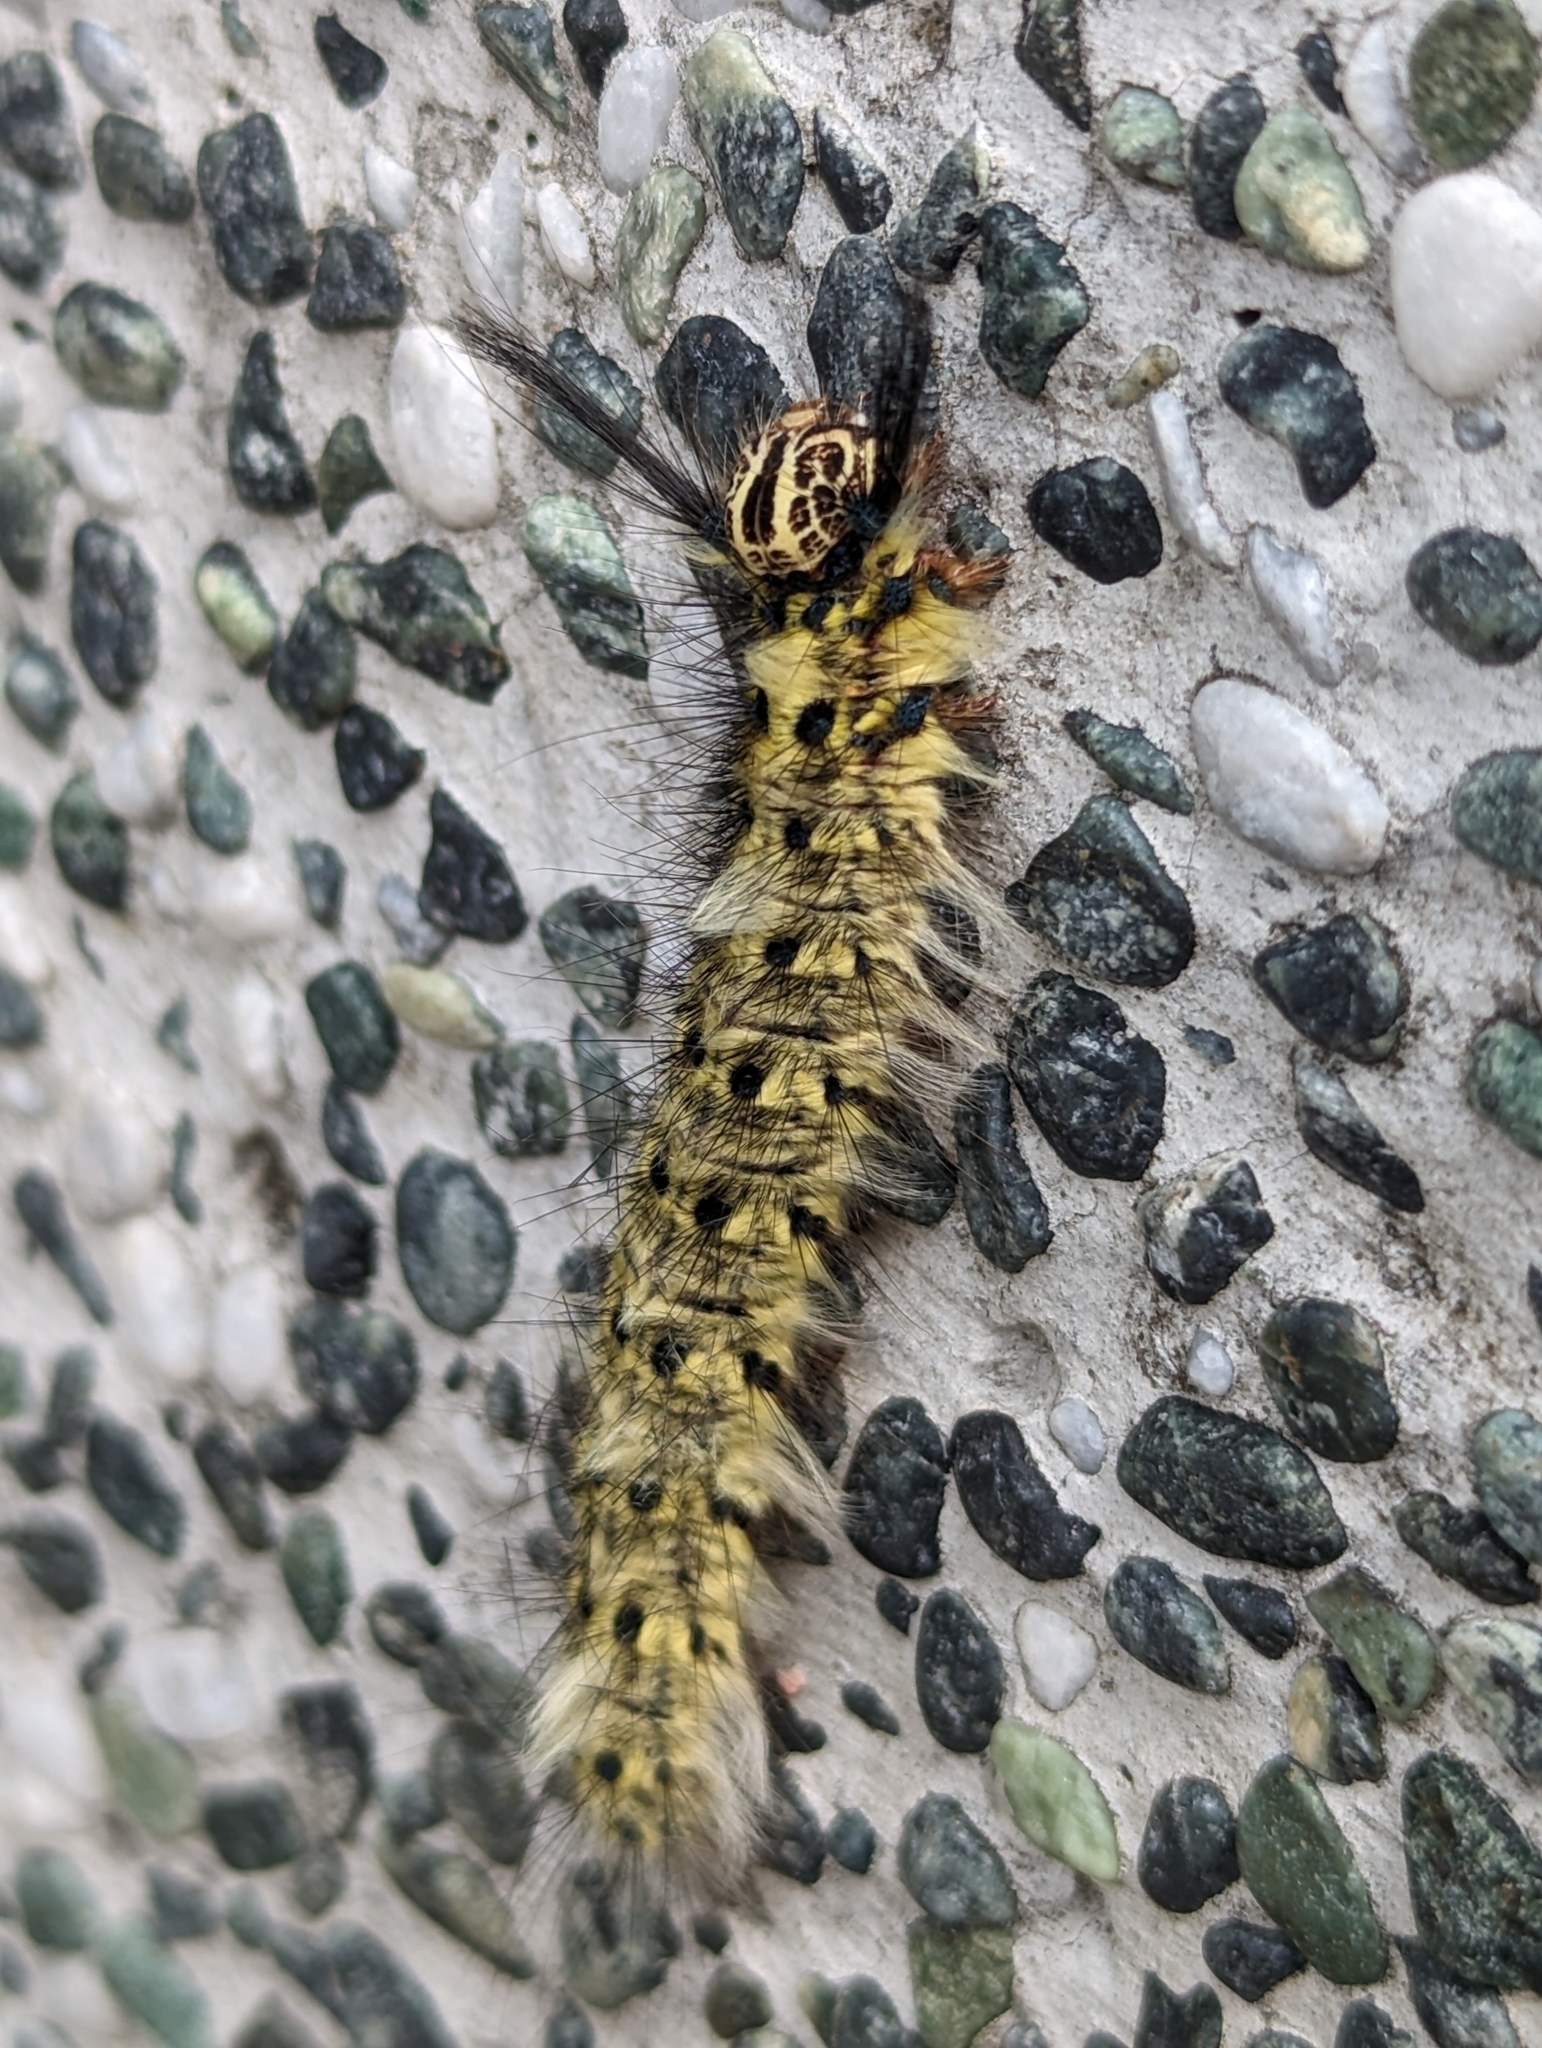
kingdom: Animalia
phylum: Arthropoda
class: Insecta
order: Lepidoptera
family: Lasiocampidae
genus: Trabala
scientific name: Trabala vishnou
